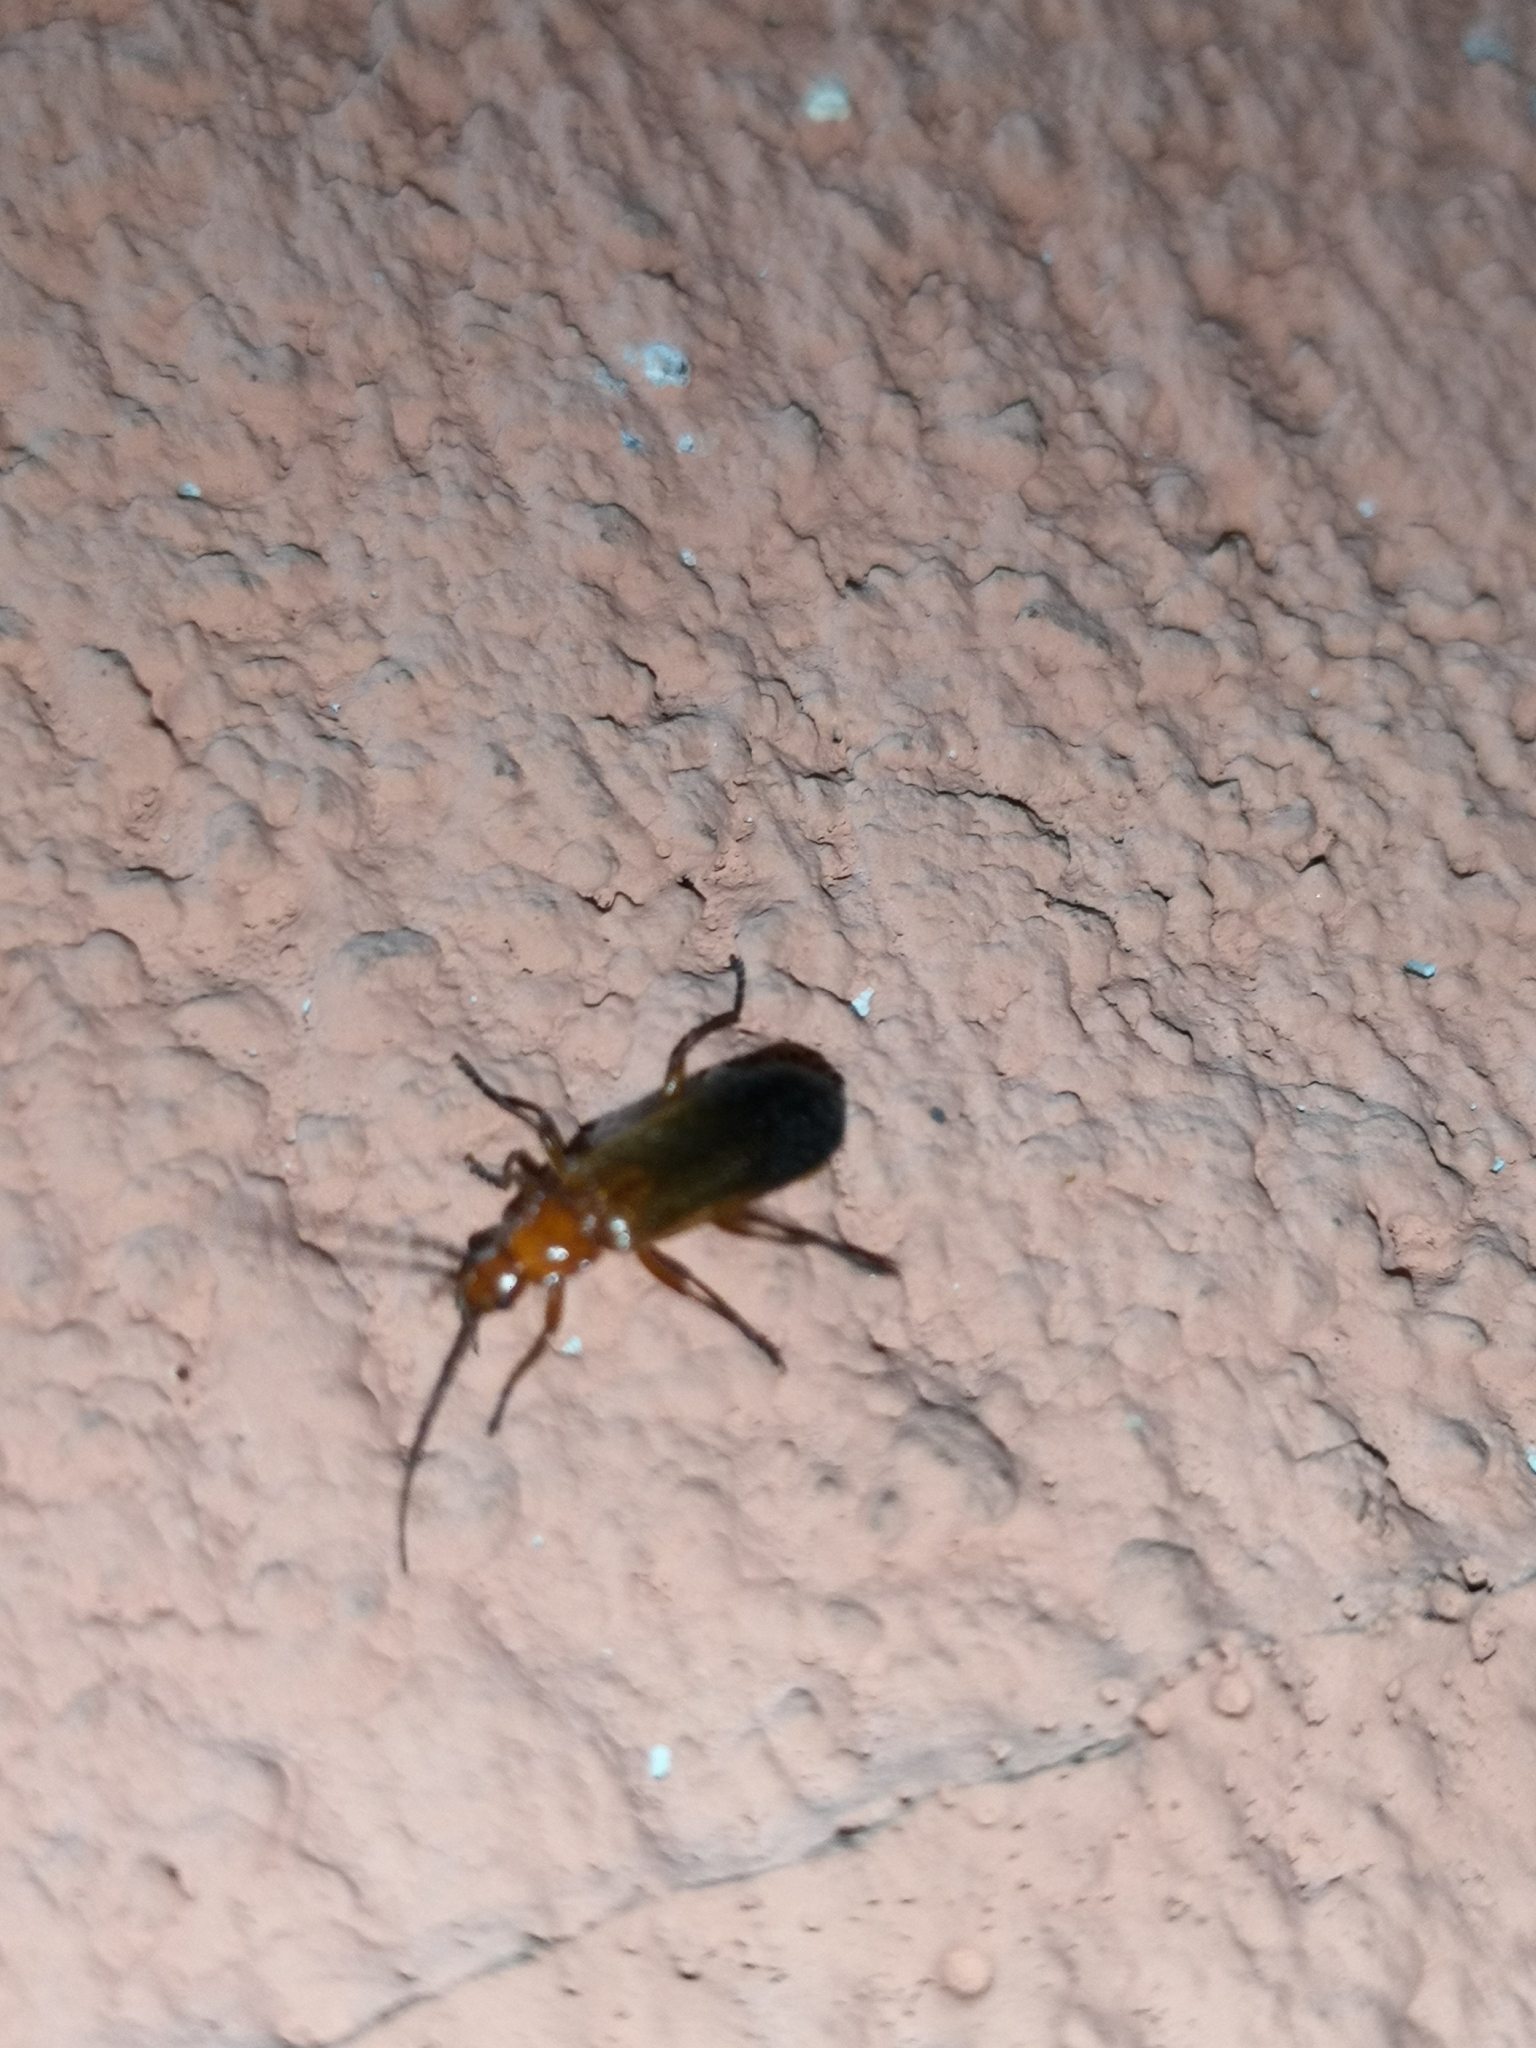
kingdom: Animalia
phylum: Arthropoda
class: Insecta
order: Coleoptera
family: Cantharidae
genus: Rhagonycha
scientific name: Rhagonycha fulva
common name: Common red soldier beetle
